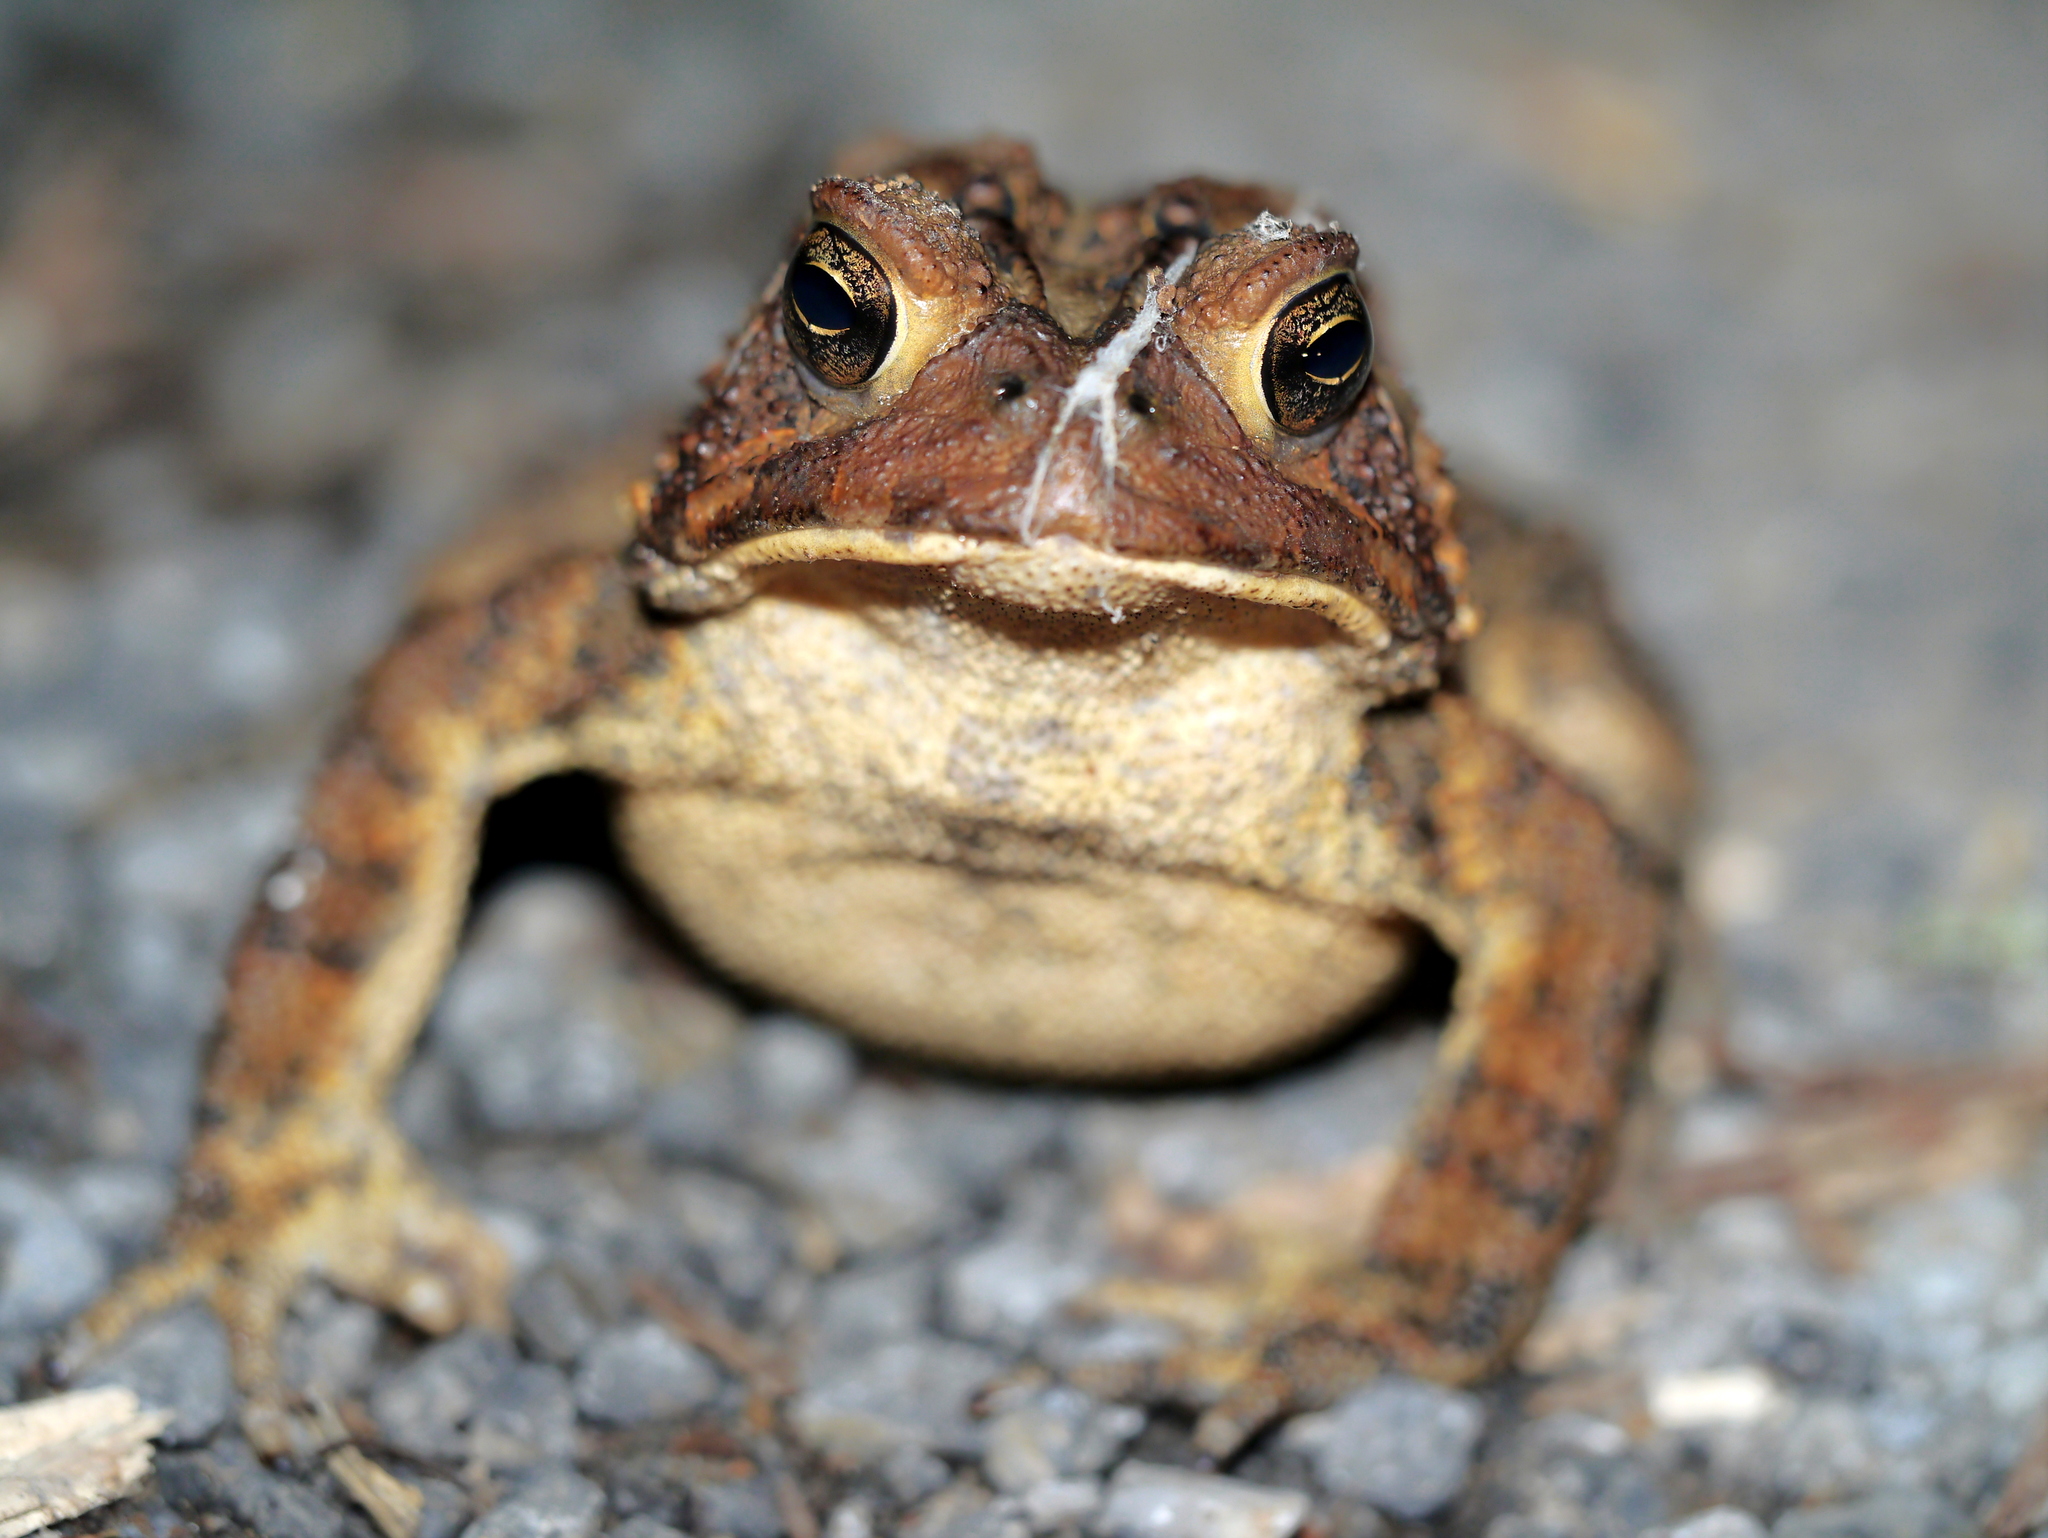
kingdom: Animalia
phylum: Chordata
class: Amphibia
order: Anura
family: Bufonidae
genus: Anaxyrus
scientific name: Anaxyrus americanus
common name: American toad
